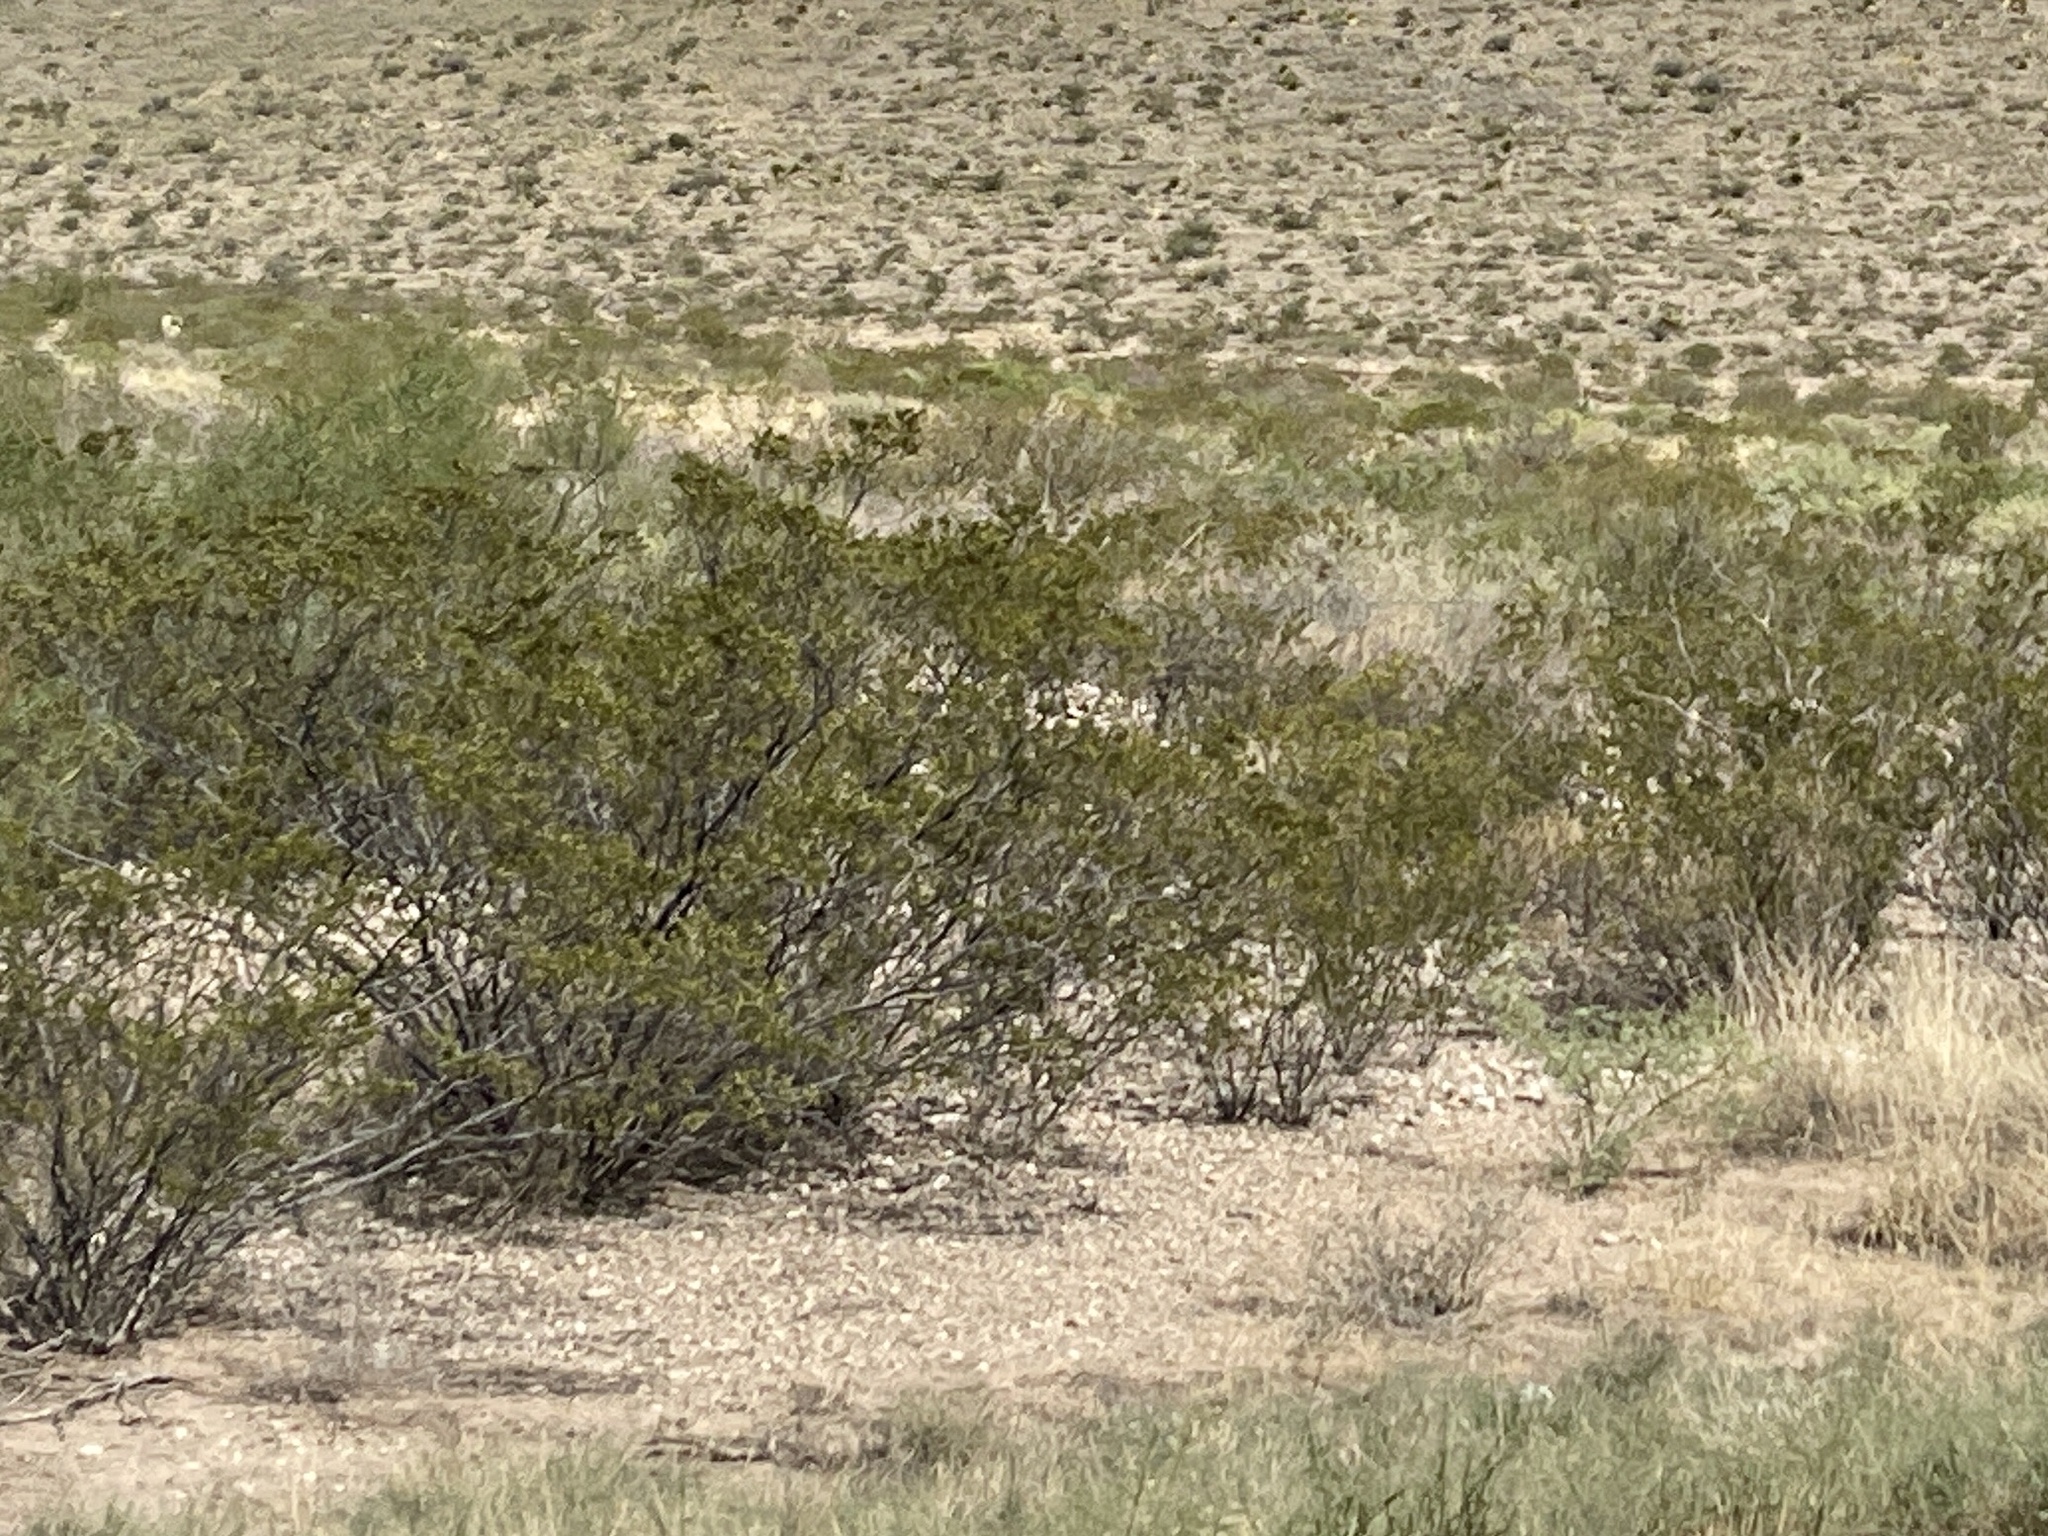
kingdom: Plantae
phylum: Tracheophyta
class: Magnoliopsida
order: Zygophyllales
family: Zygophyllaceae
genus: Larrea
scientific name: Larrea tridentata
